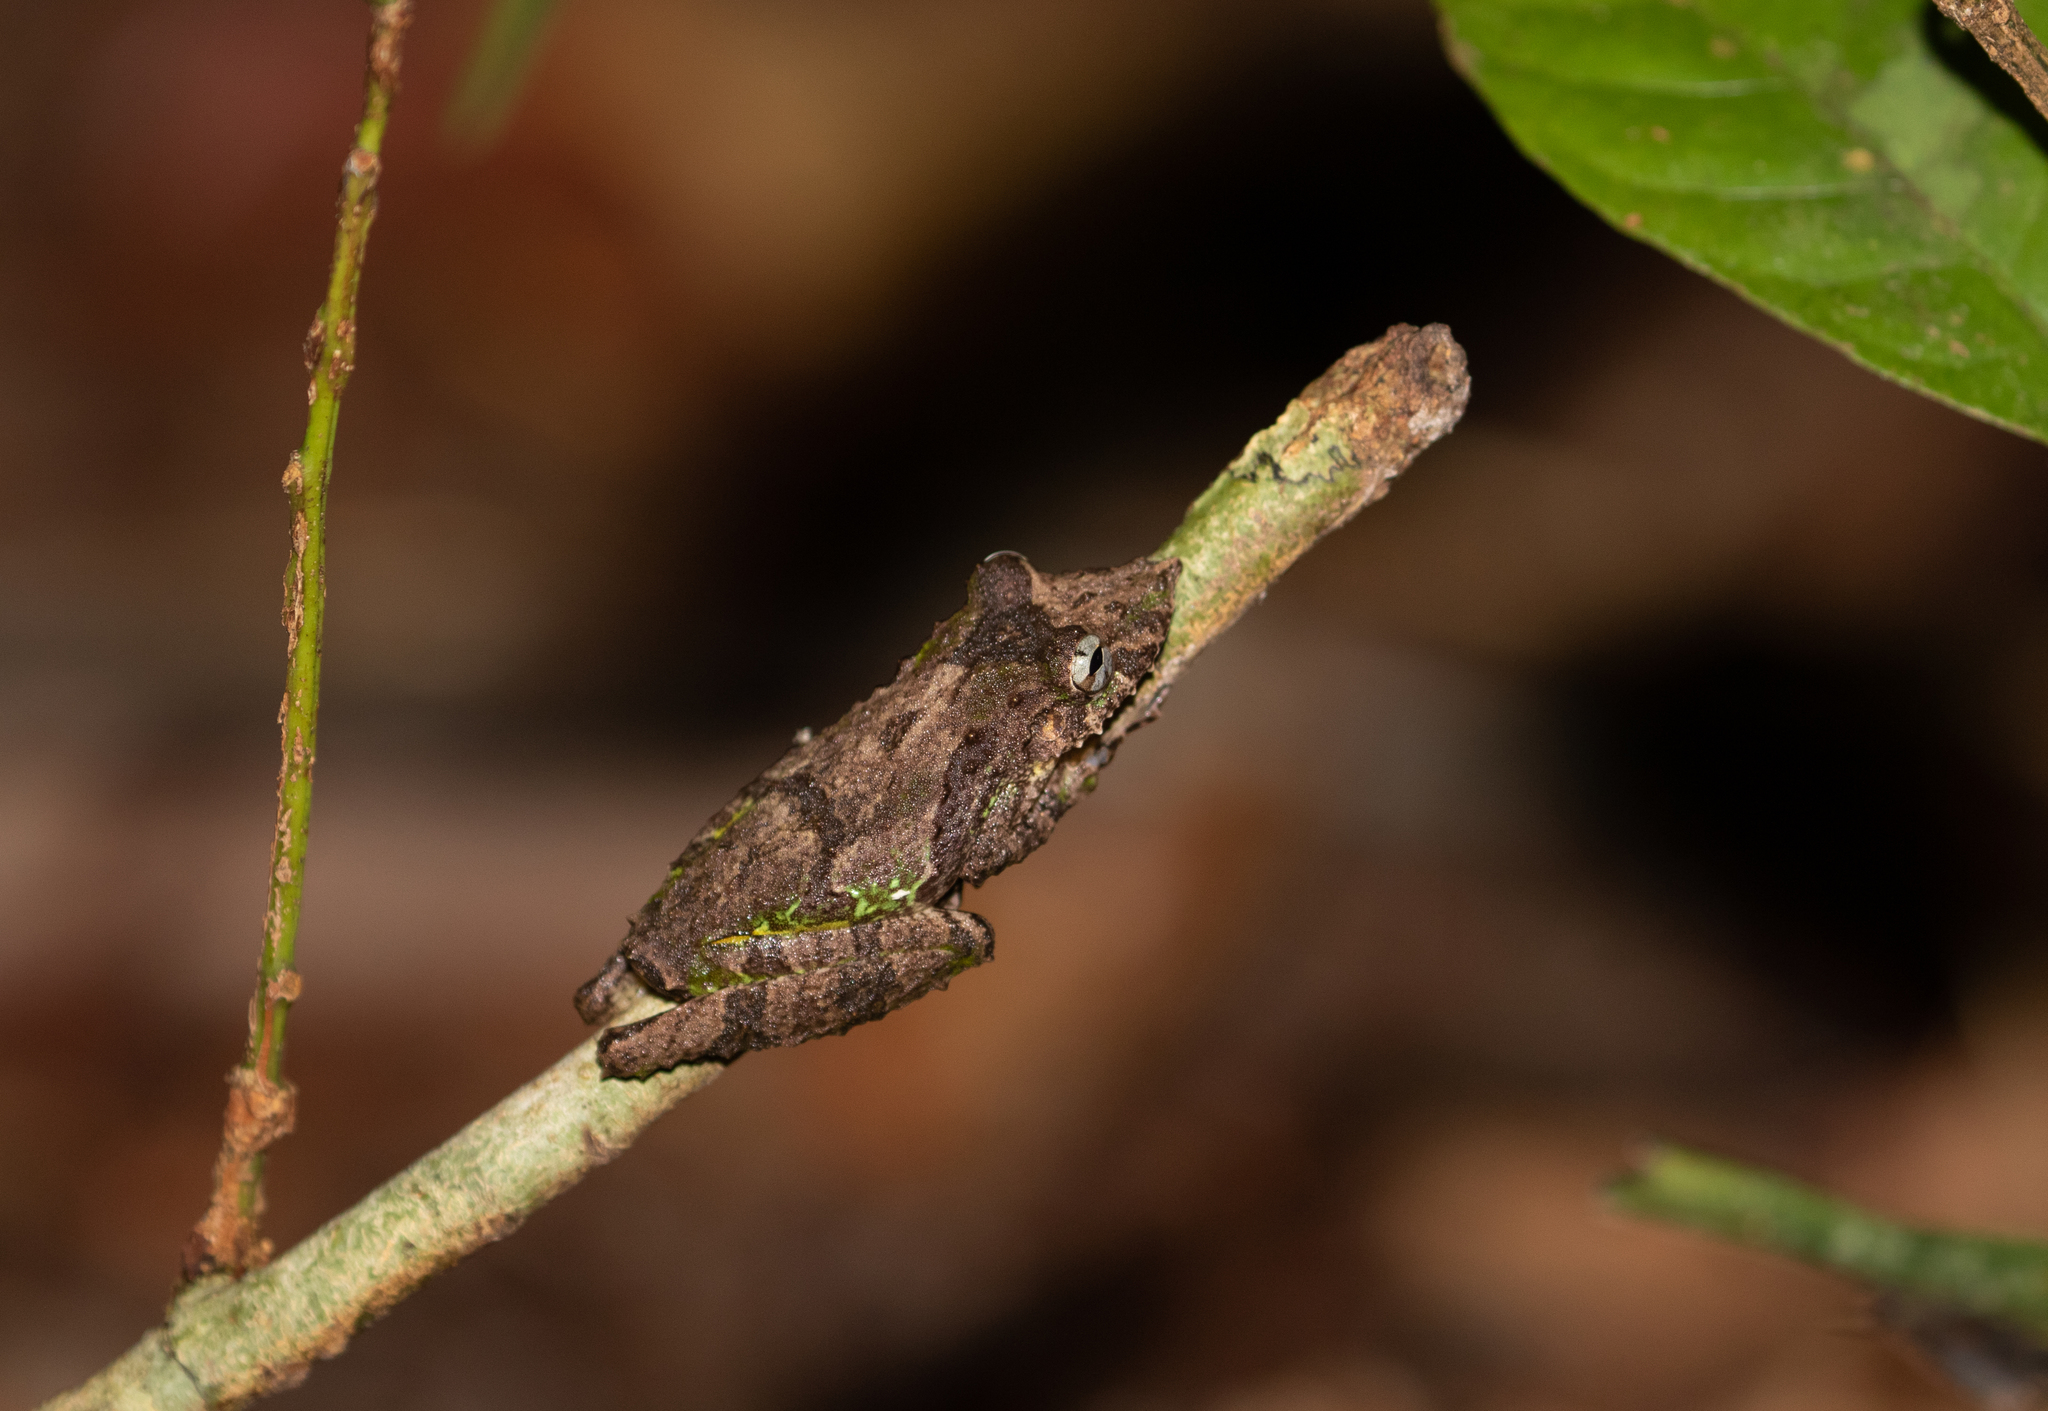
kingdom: Animalia
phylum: Chordata
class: Amphibia
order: Anura
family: Hylidae
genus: Scinax
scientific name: Scinax garbei
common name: Eirunepe snouted treefrog
